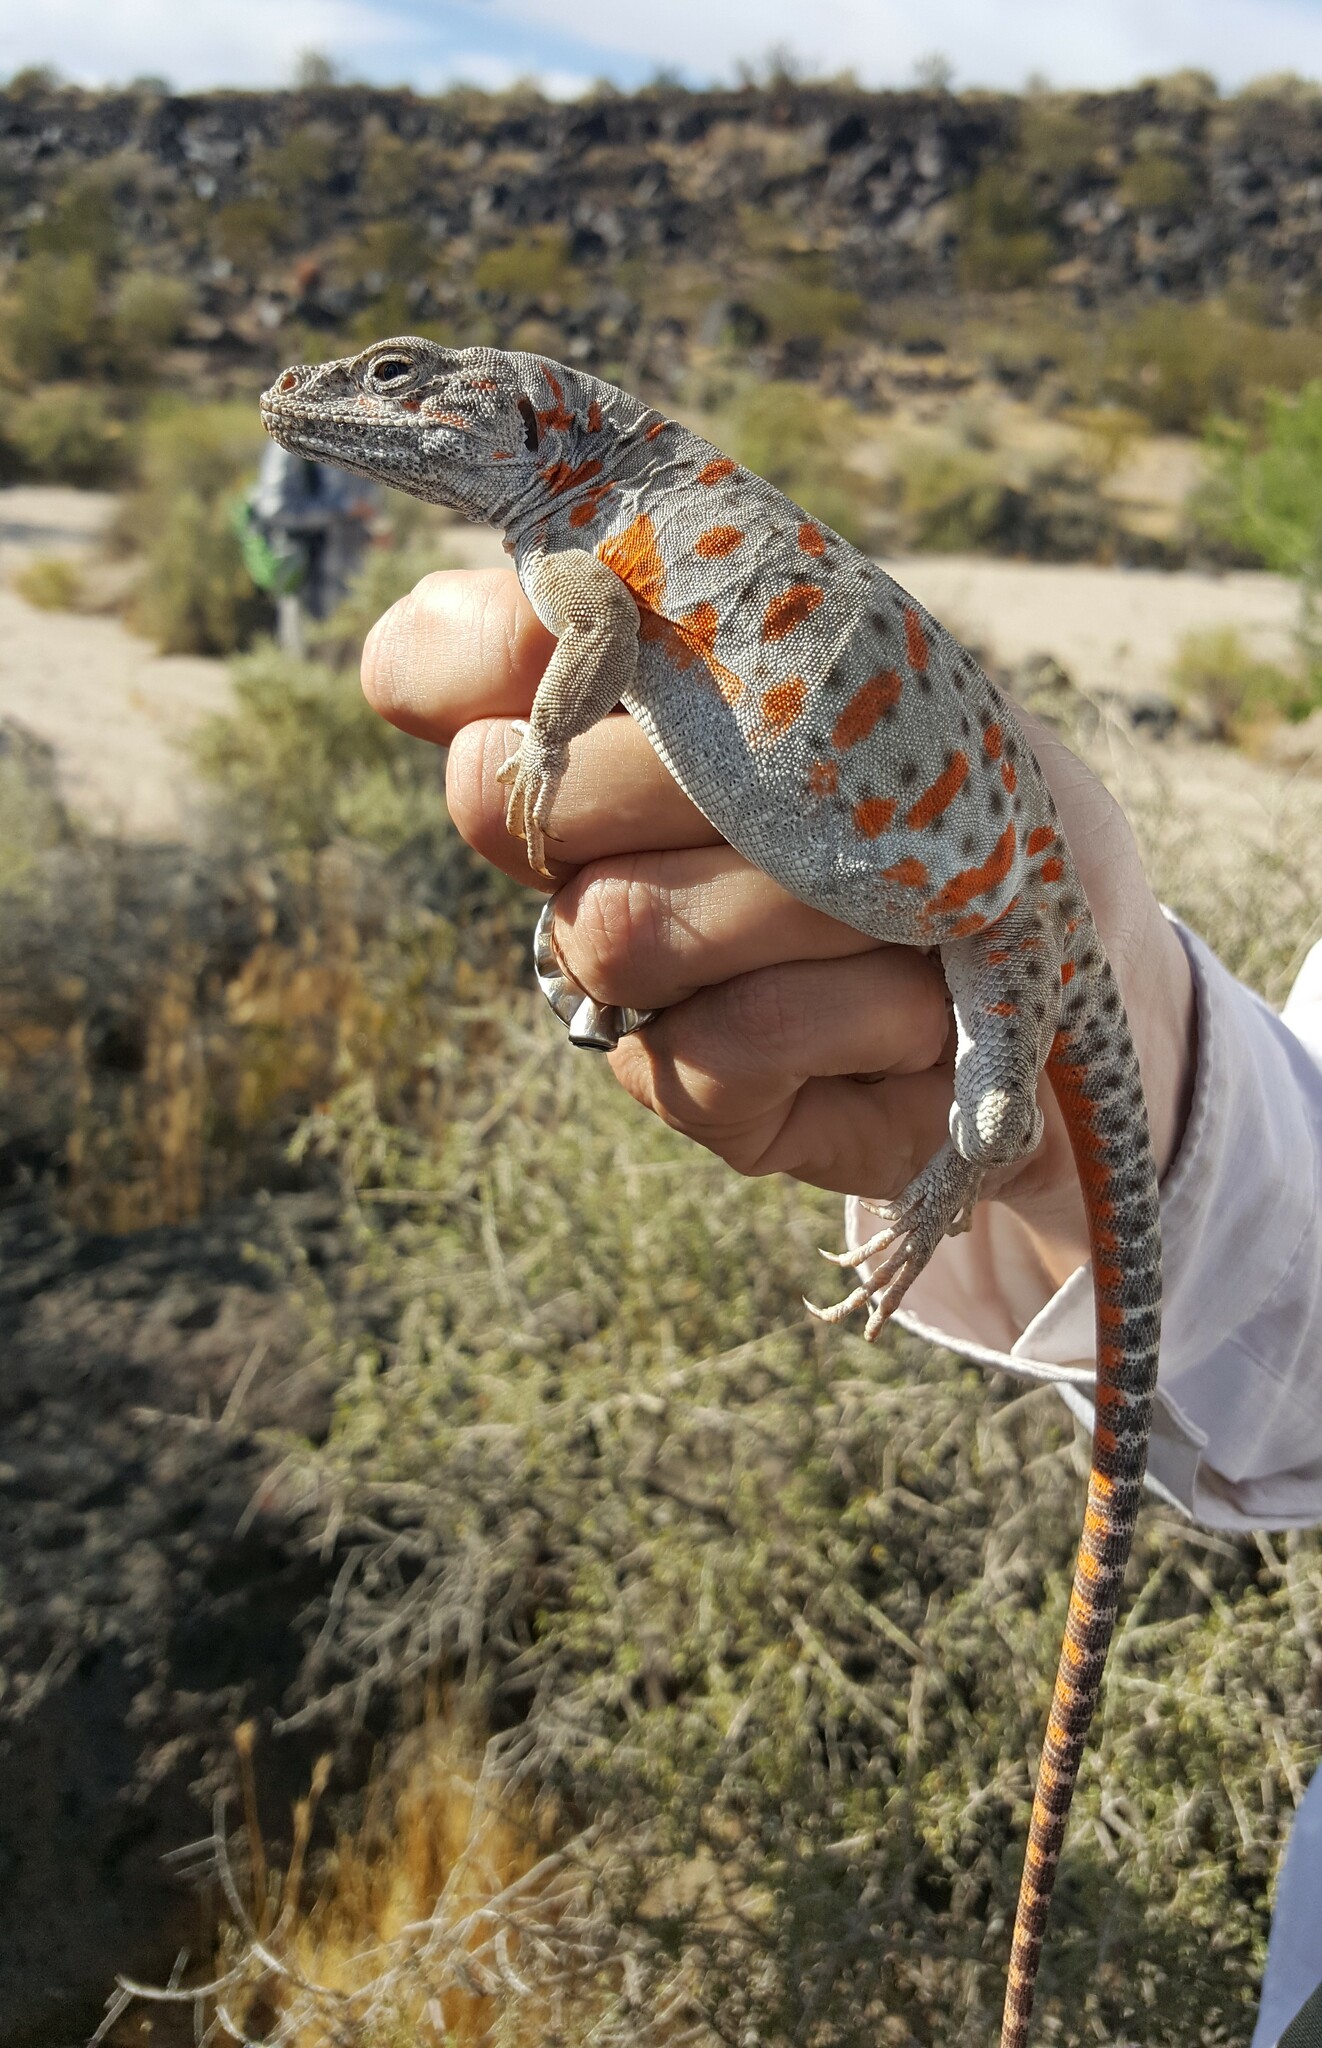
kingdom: Animalia
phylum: Chordata
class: Squamata
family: Crotaphytidae
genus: Gambelia
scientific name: Gambelia wislizenii
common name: Longnose leopard lizard
